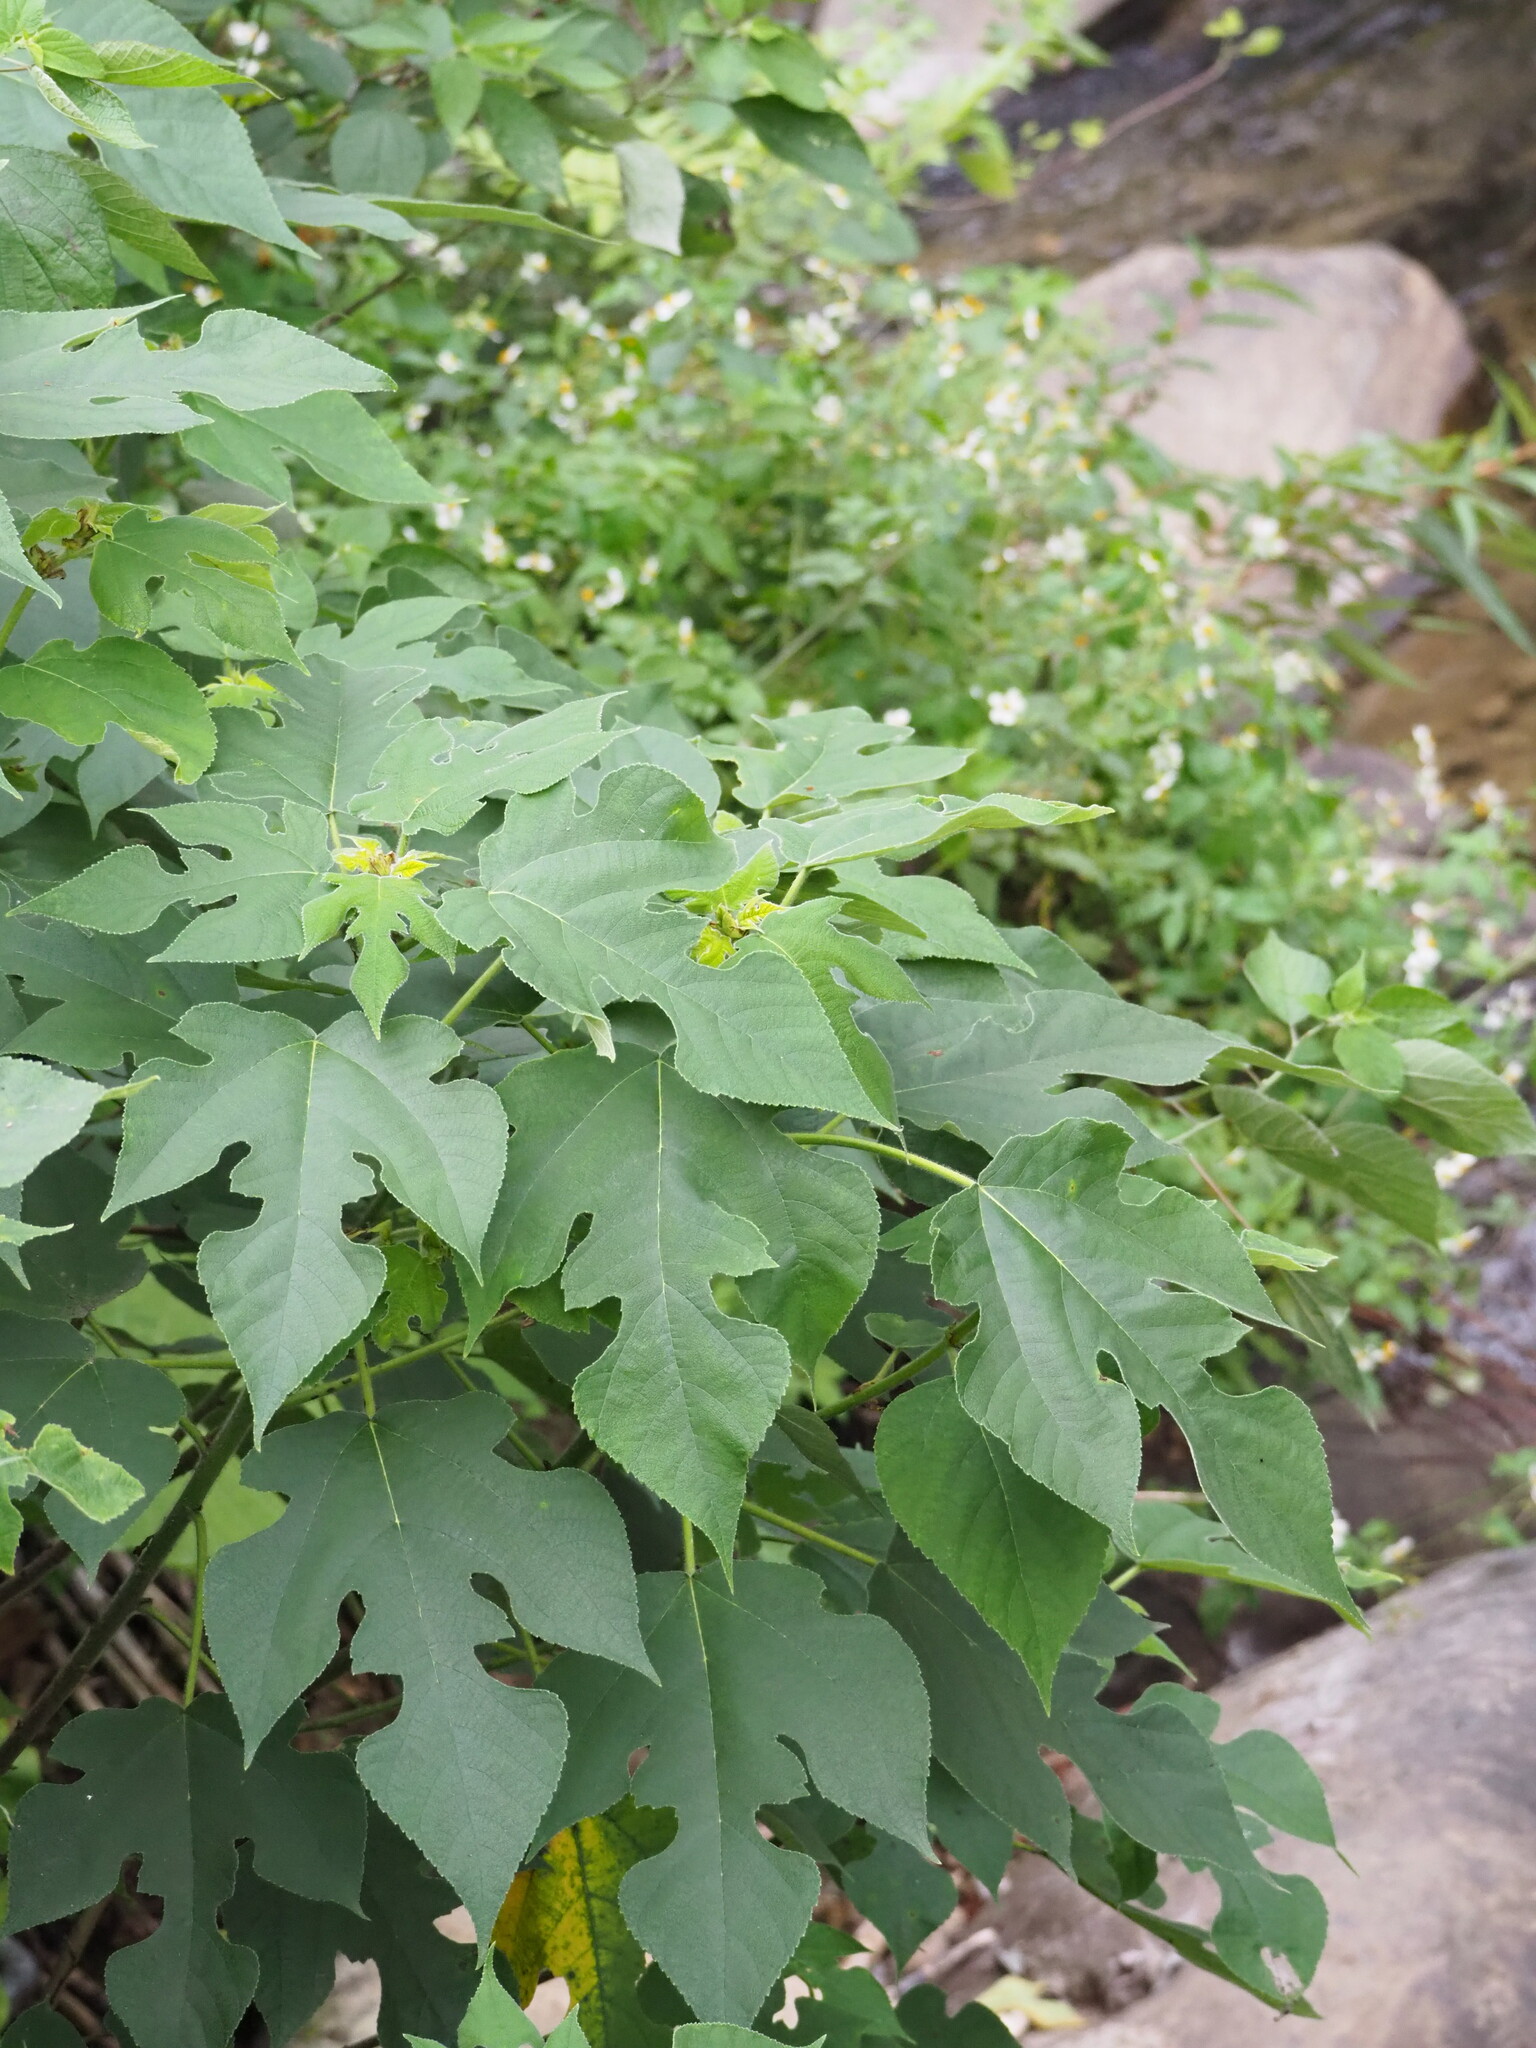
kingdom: Plantae
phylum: Tracheophyta
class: Magnoliopsida
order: Rosales
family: Moraceae
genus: Broussonetia
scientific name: Broussonetia papyrifera
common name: Paper mulberry
